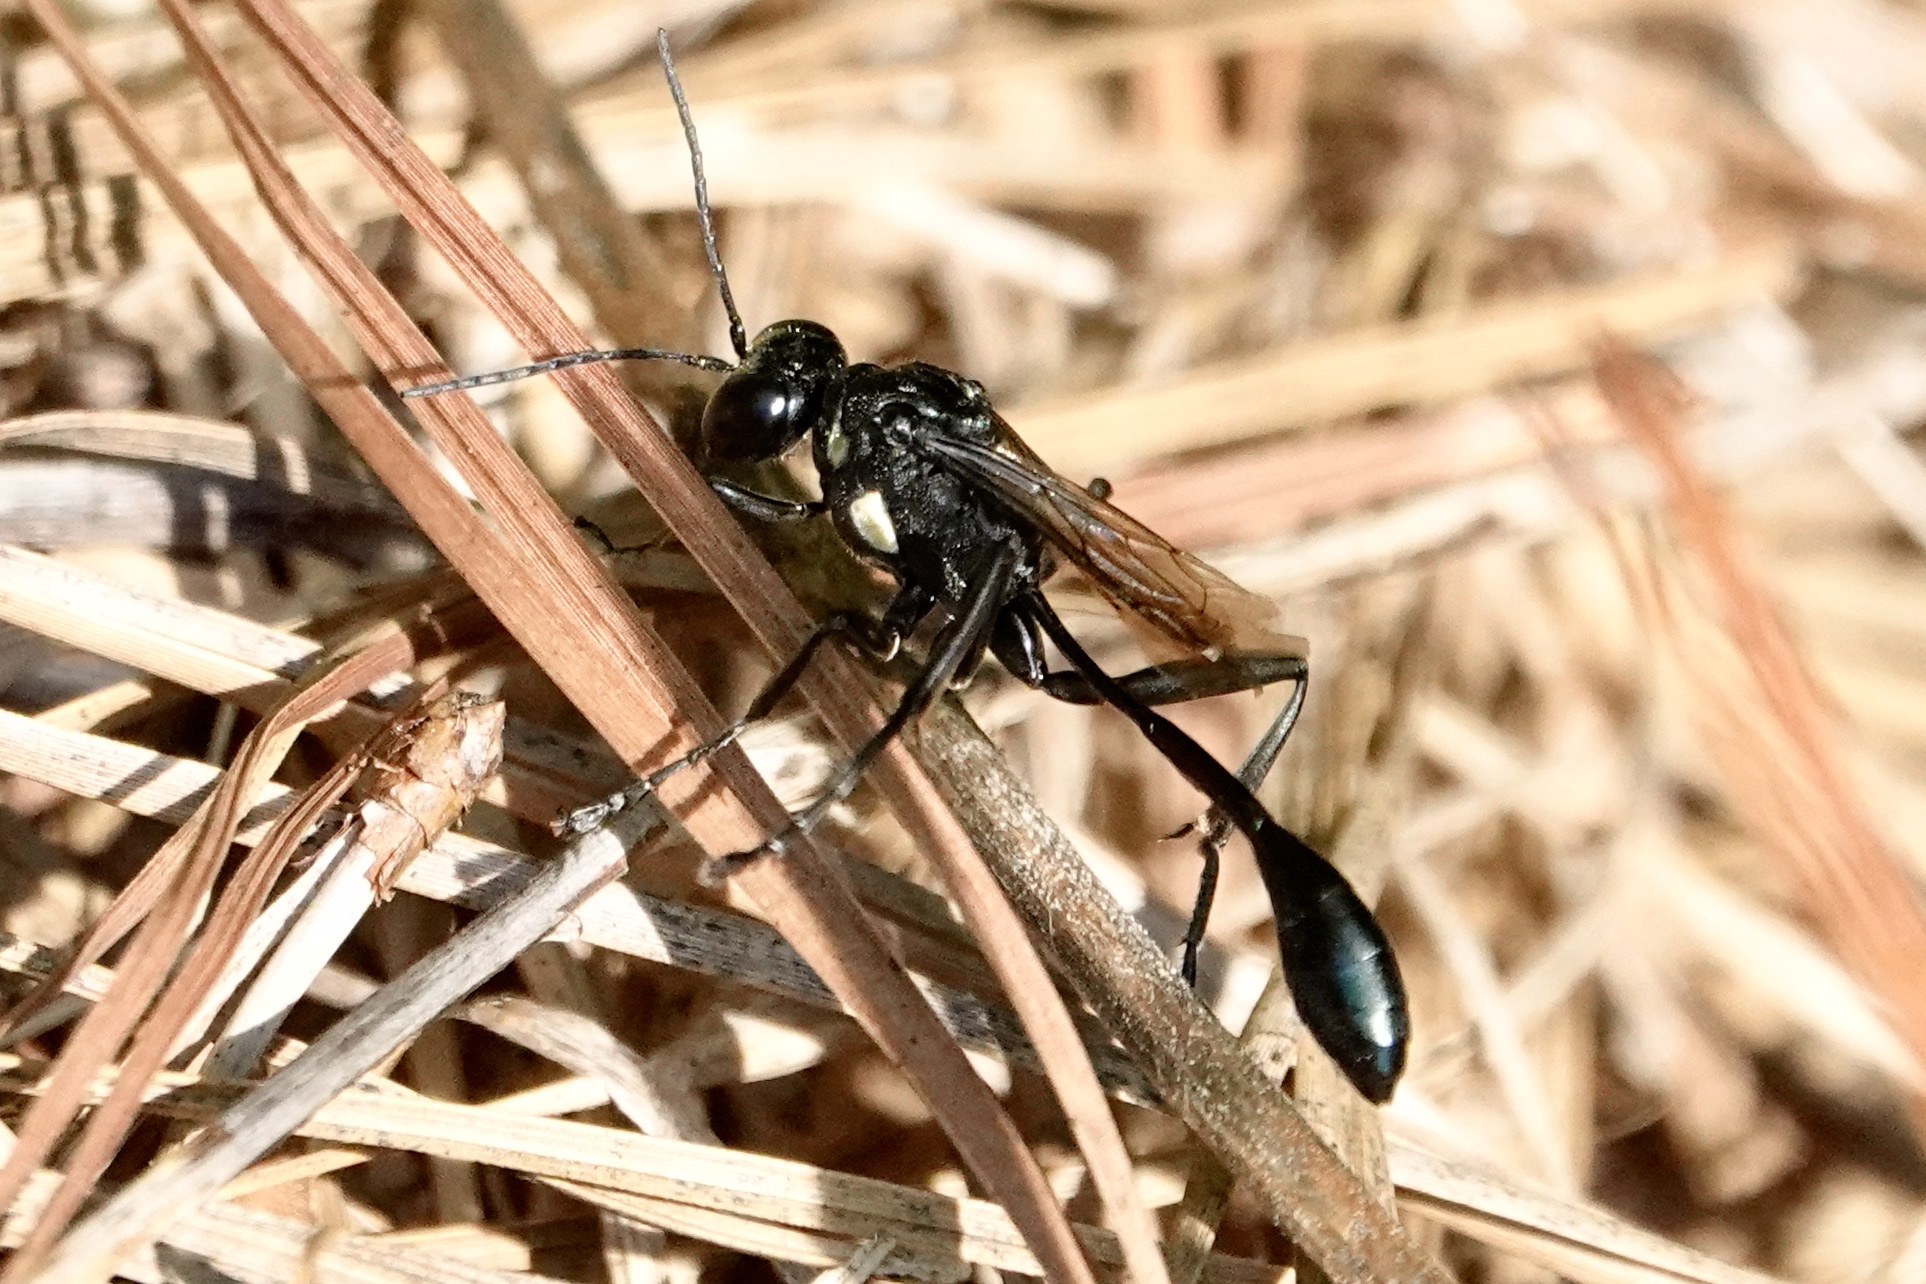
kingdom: Animalia
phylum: Arthropoda
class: Insecta
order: Hymenoptera
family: Sphecidae
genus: Eremnophila
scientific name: Eremnophila aureonotata
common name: Gold-marked thread-waisted wasp
